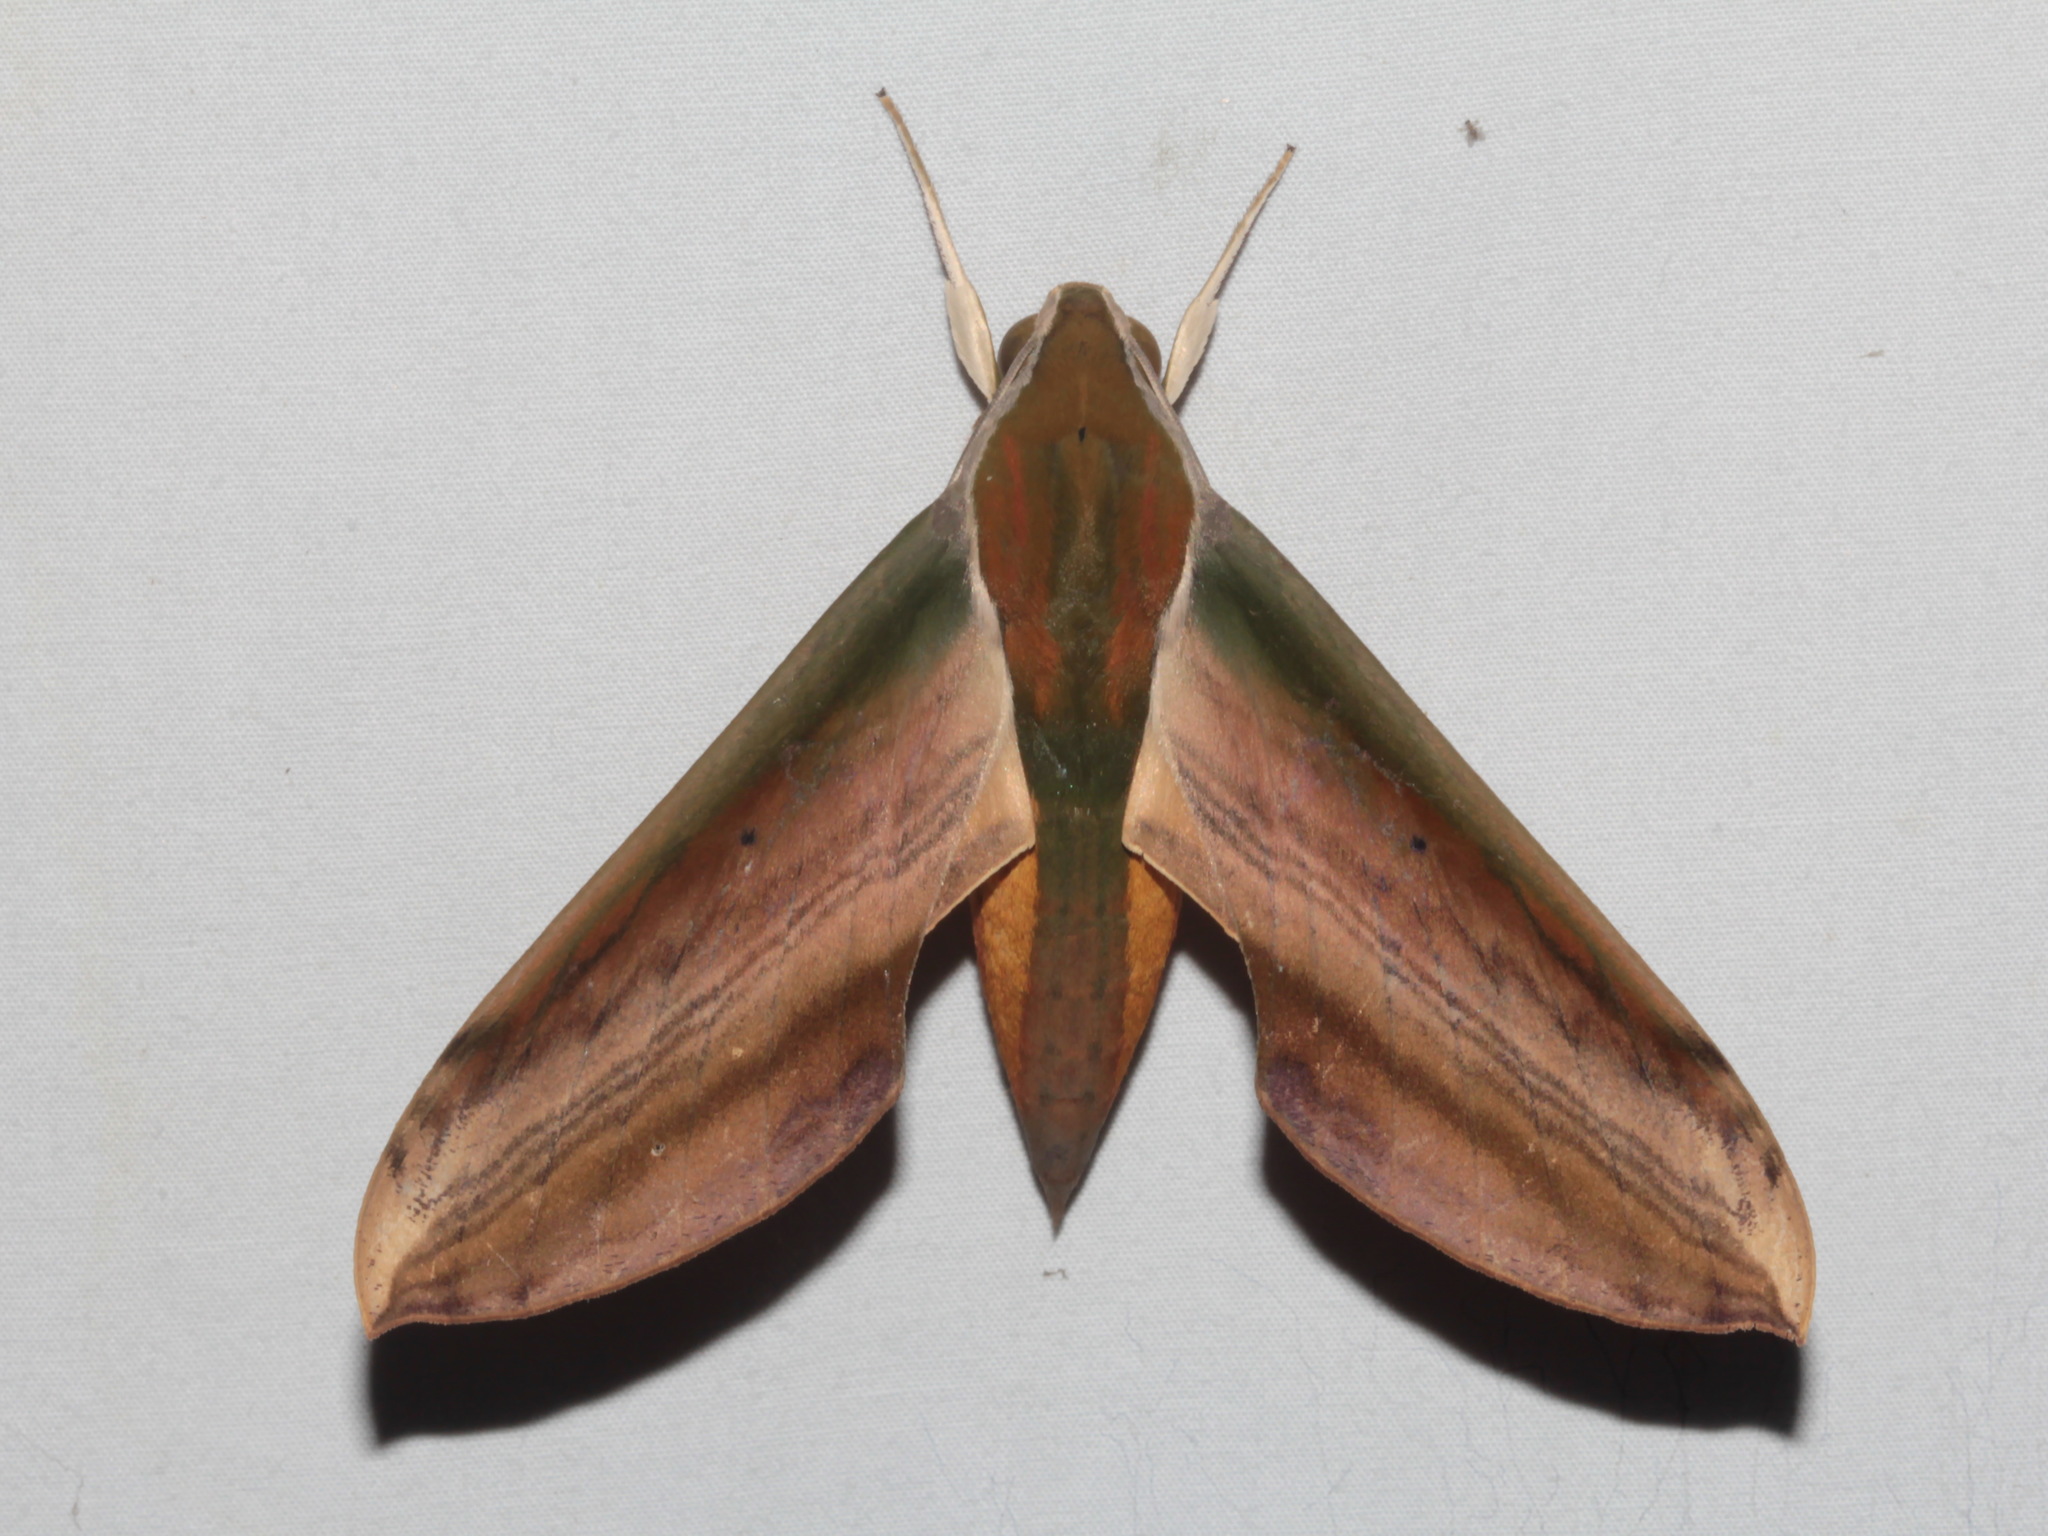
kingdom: Animalia
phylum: Arthropoda
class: Insecta
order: Lepidoptera
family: Sphingidae
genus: Theretra
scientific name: Theretra nessus
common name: Yam hawk moth
